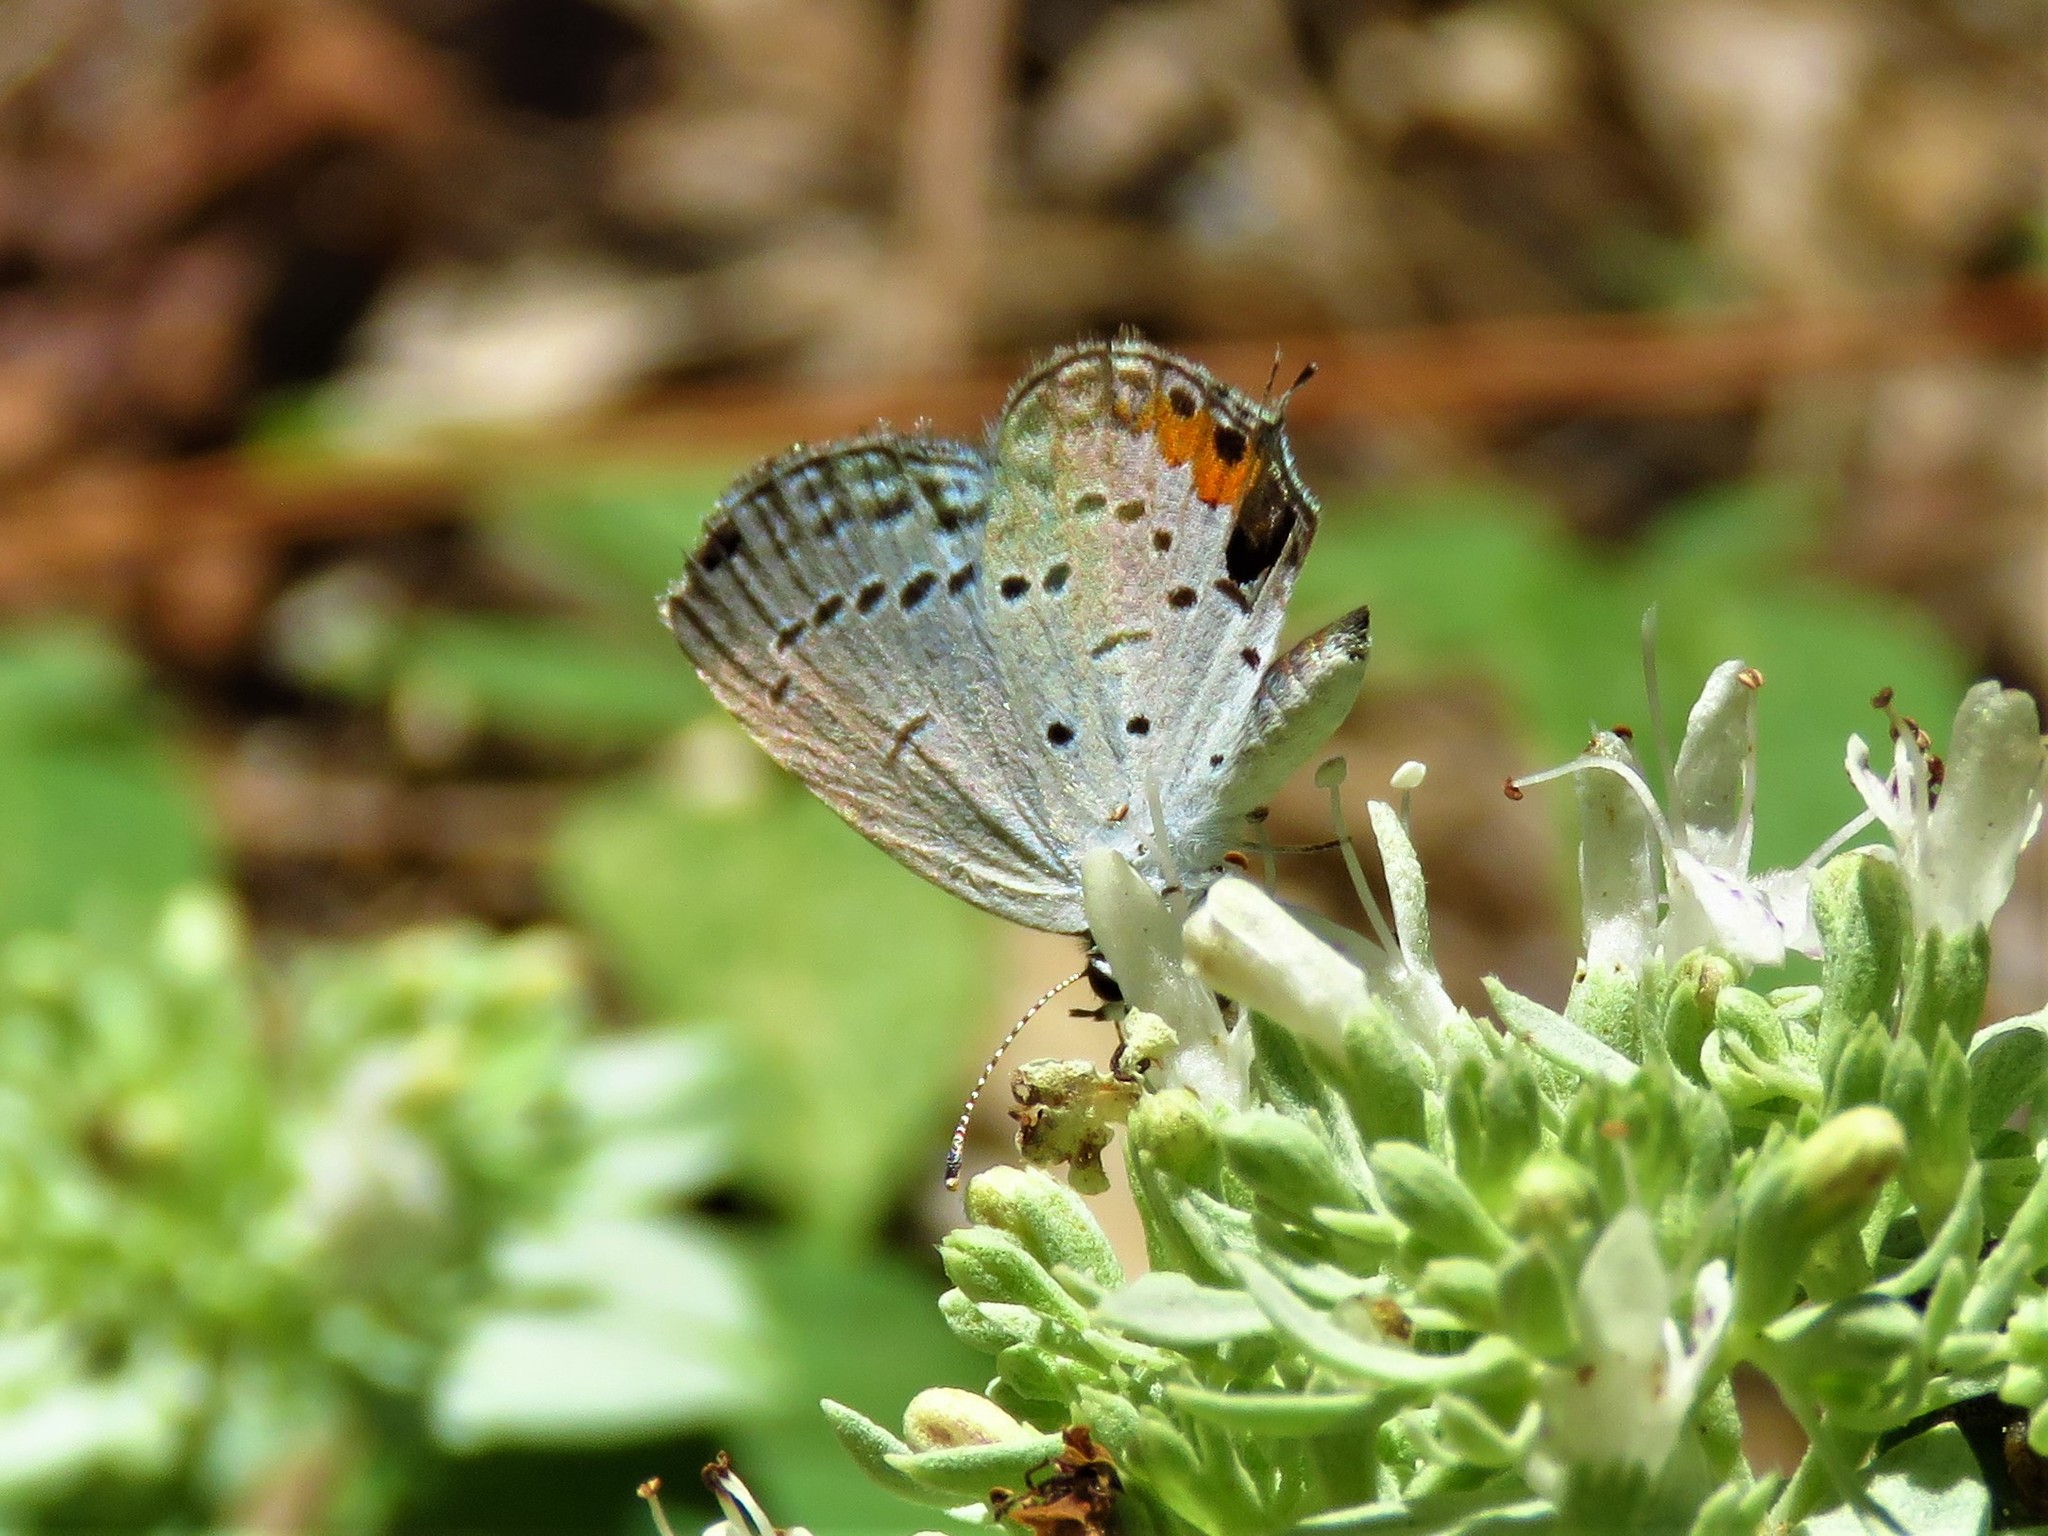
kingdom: Animalia
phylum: Arthropoda
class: Insecta
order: Lepidoptera
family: Lycaenidae
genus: Elkalyce
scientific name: Elkalyce comyntas
